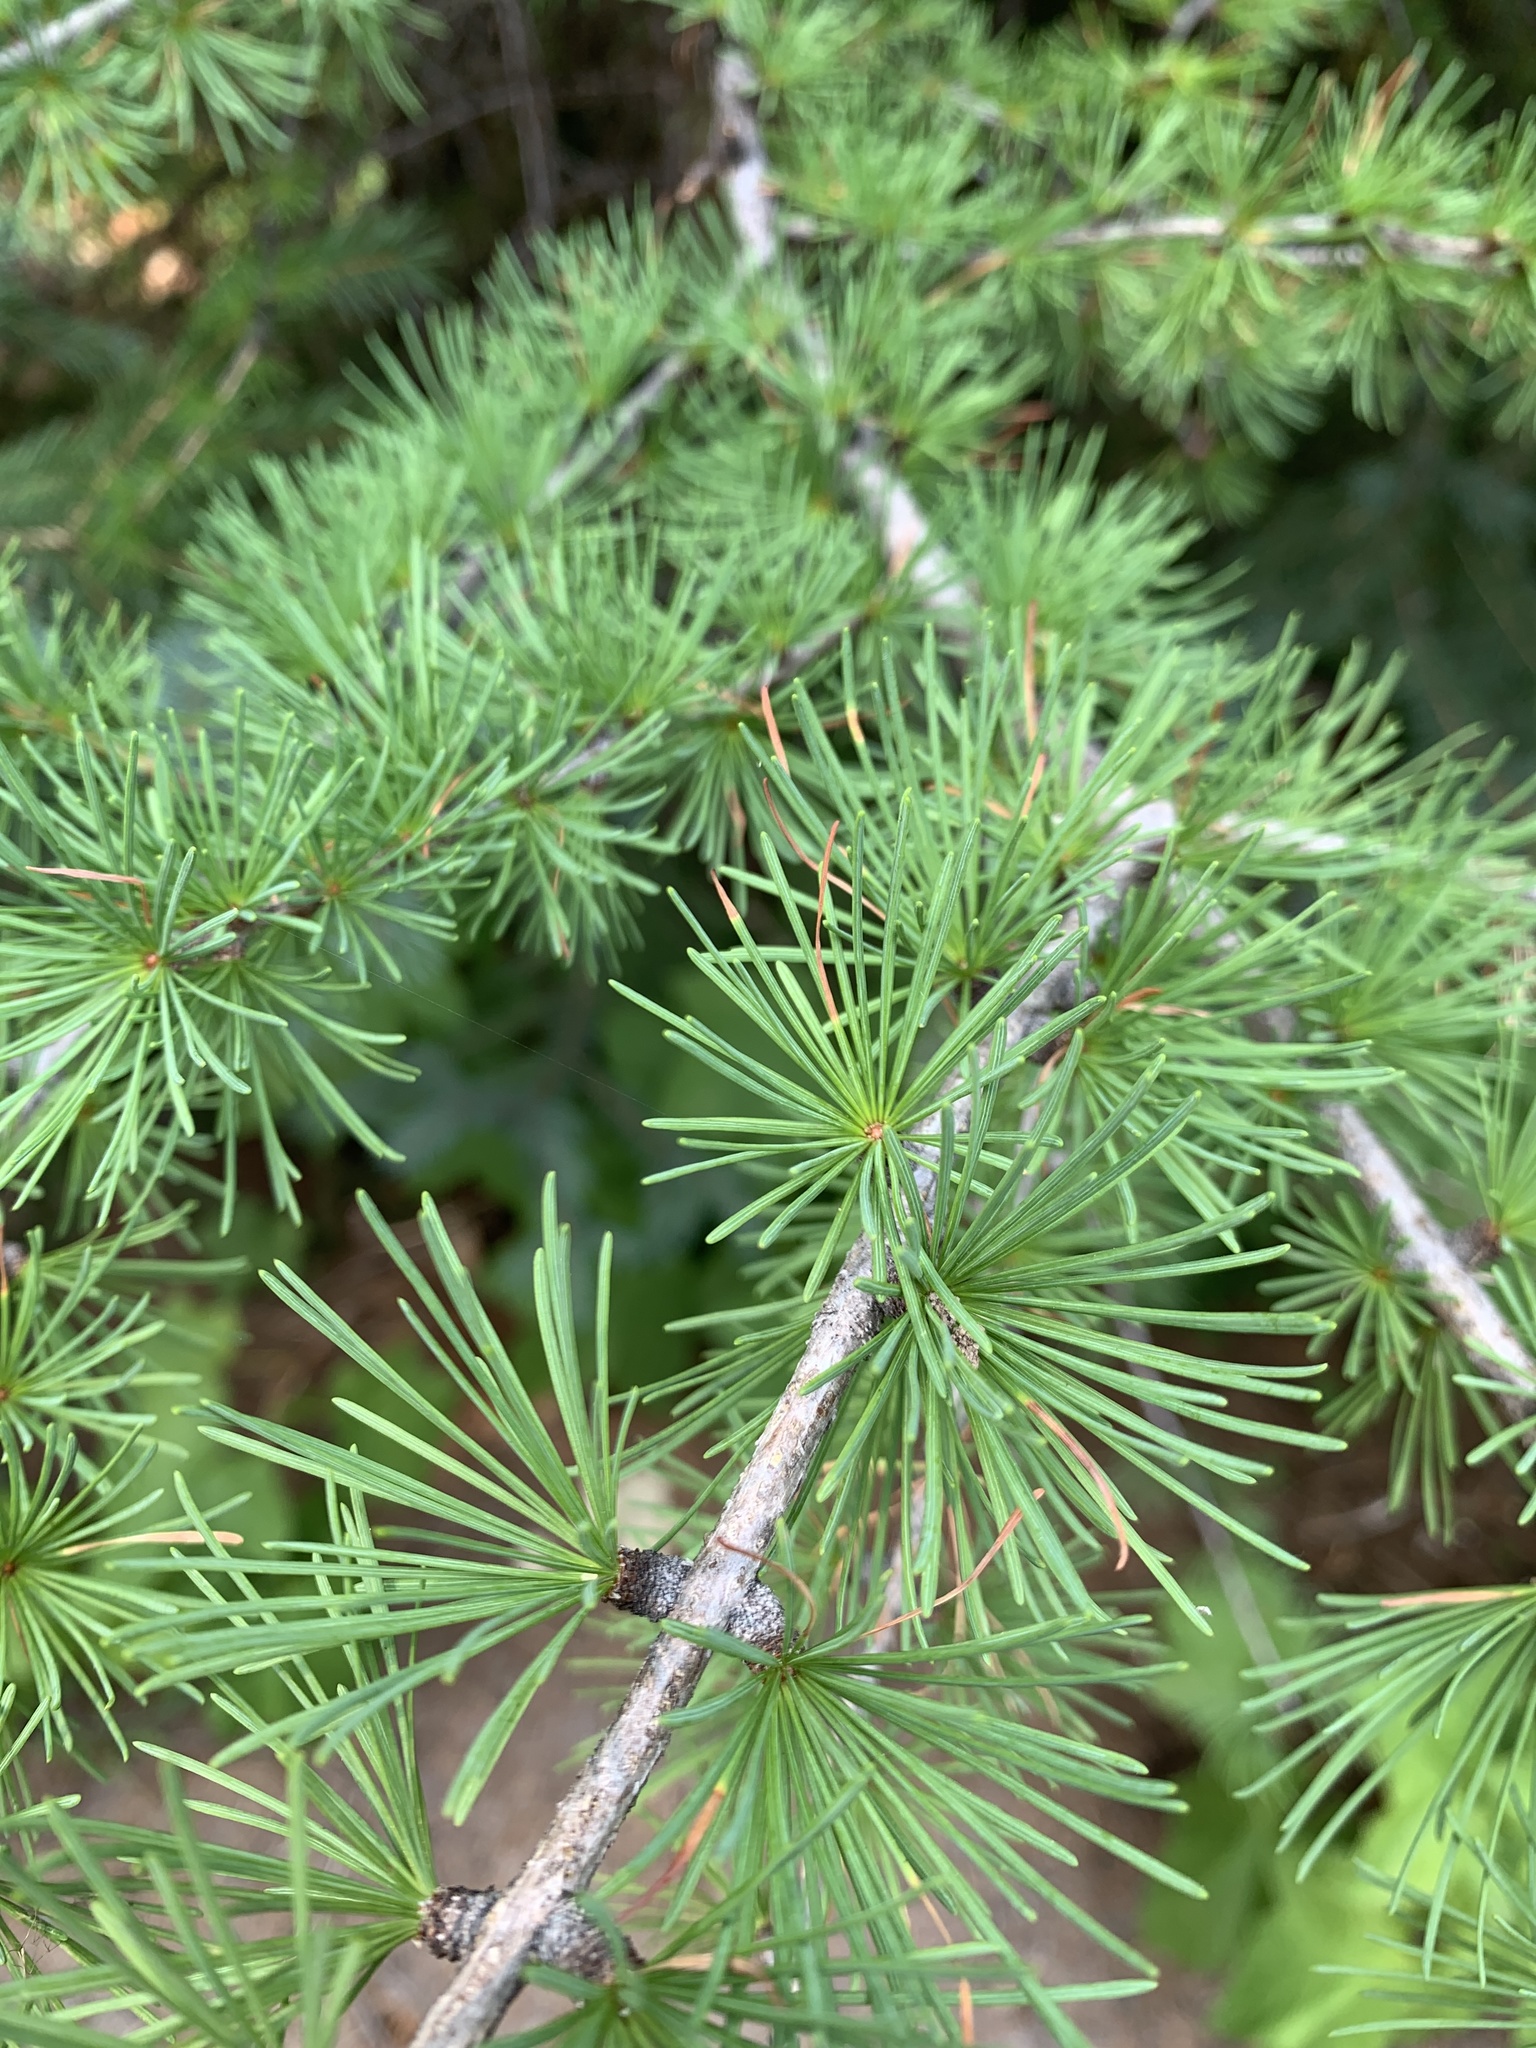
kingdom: Plantae
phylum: Tracheophyta
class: Pinopsida
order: Pinales
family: Pinaceae
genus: Larix
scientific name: Larix occidentalis
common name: Western larch
